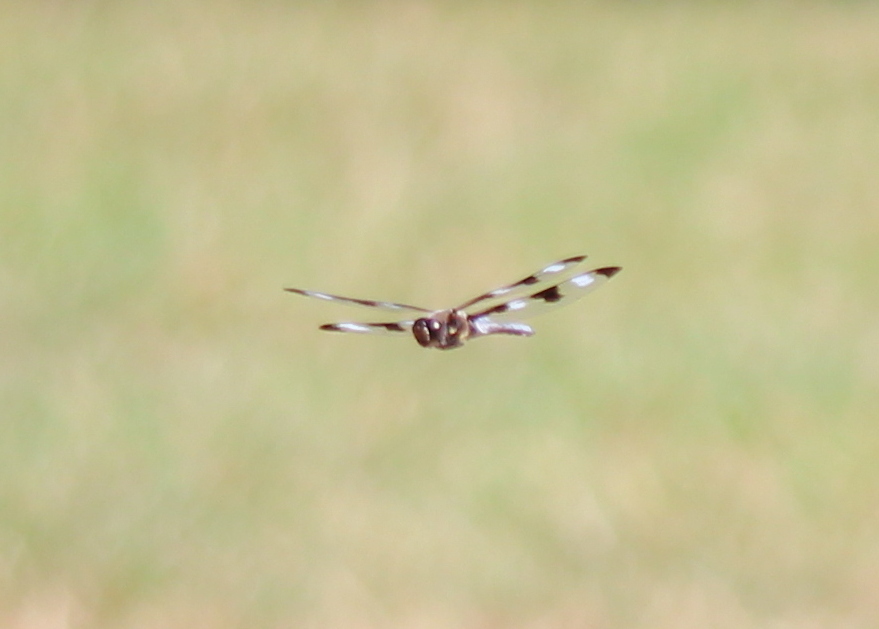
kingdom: Animalia
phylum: Arthropoda
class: Insecta
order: Odonata
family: Libellulidae
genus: Libellula
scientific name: Libellula pulchella
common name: Twelve-spotted skimmer
